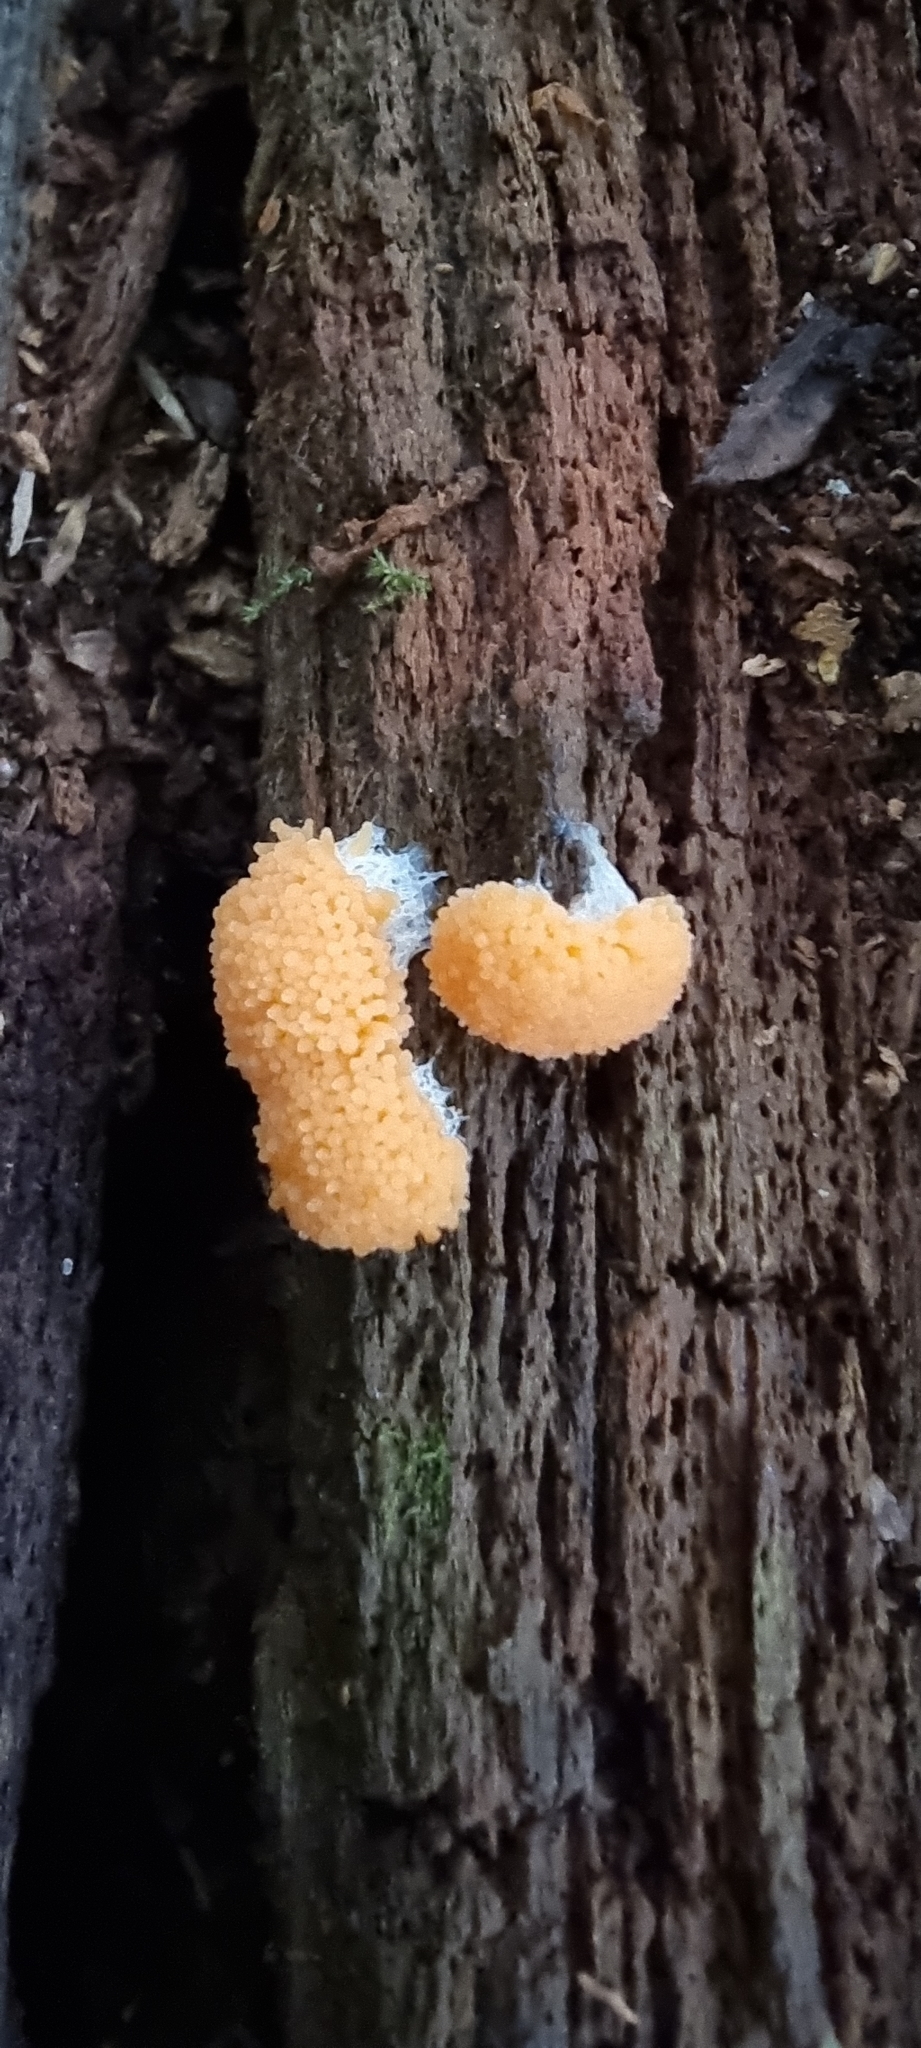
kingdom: Protozoa
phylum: Mycetozoa
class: Myxomycetes
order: Cribrariales
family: Tubiferaceae
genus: Tubifera
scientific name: Tubifera ferruginosa
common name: Red raspberry slime mold
